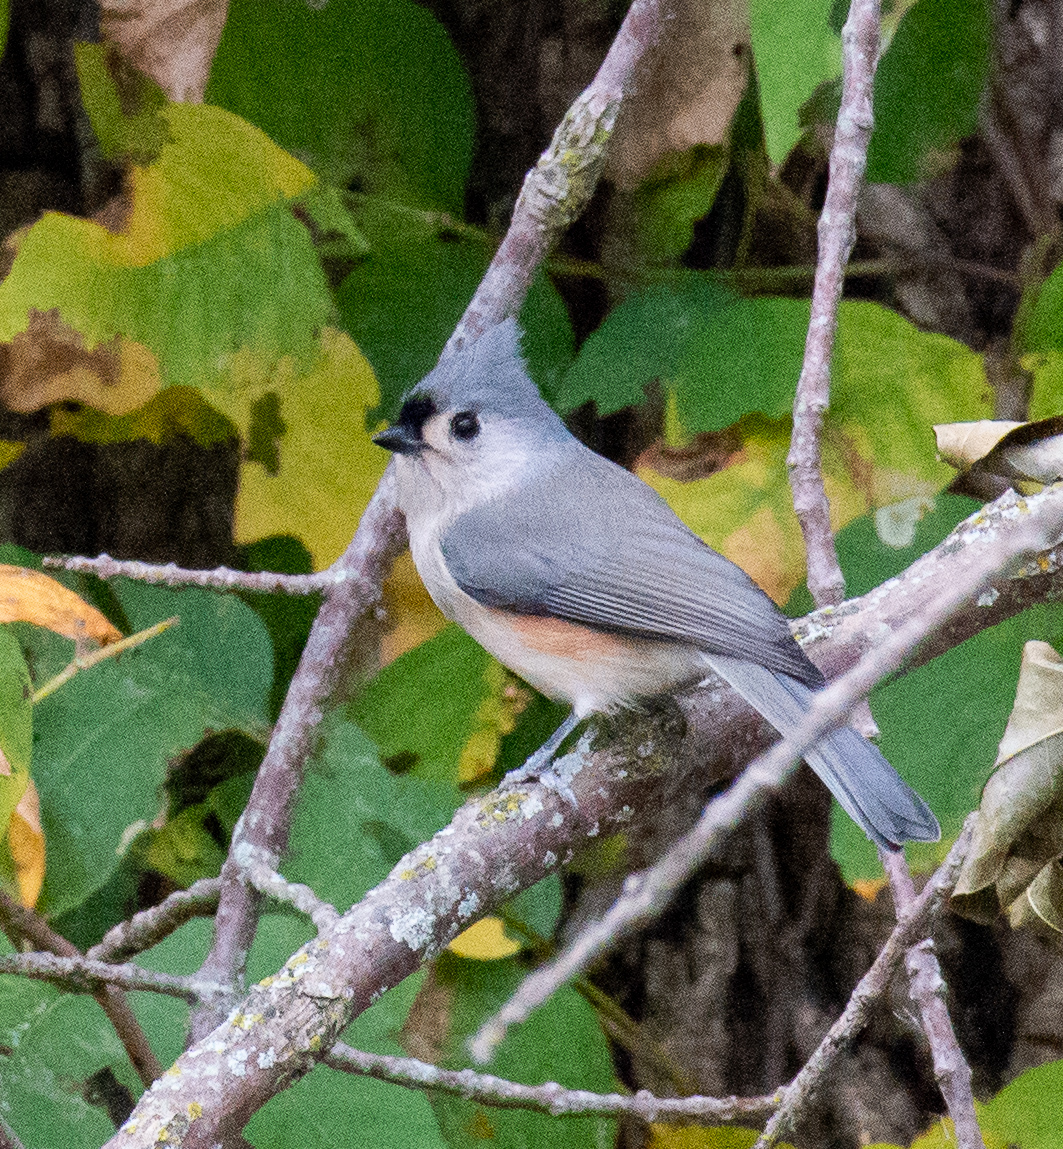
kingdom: Animalia
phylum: Chordata
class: Aves
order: Passeriformes
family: Paridae
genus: Baeolophus
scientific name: Baeolophus bicolor
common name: Tufted titmouse
